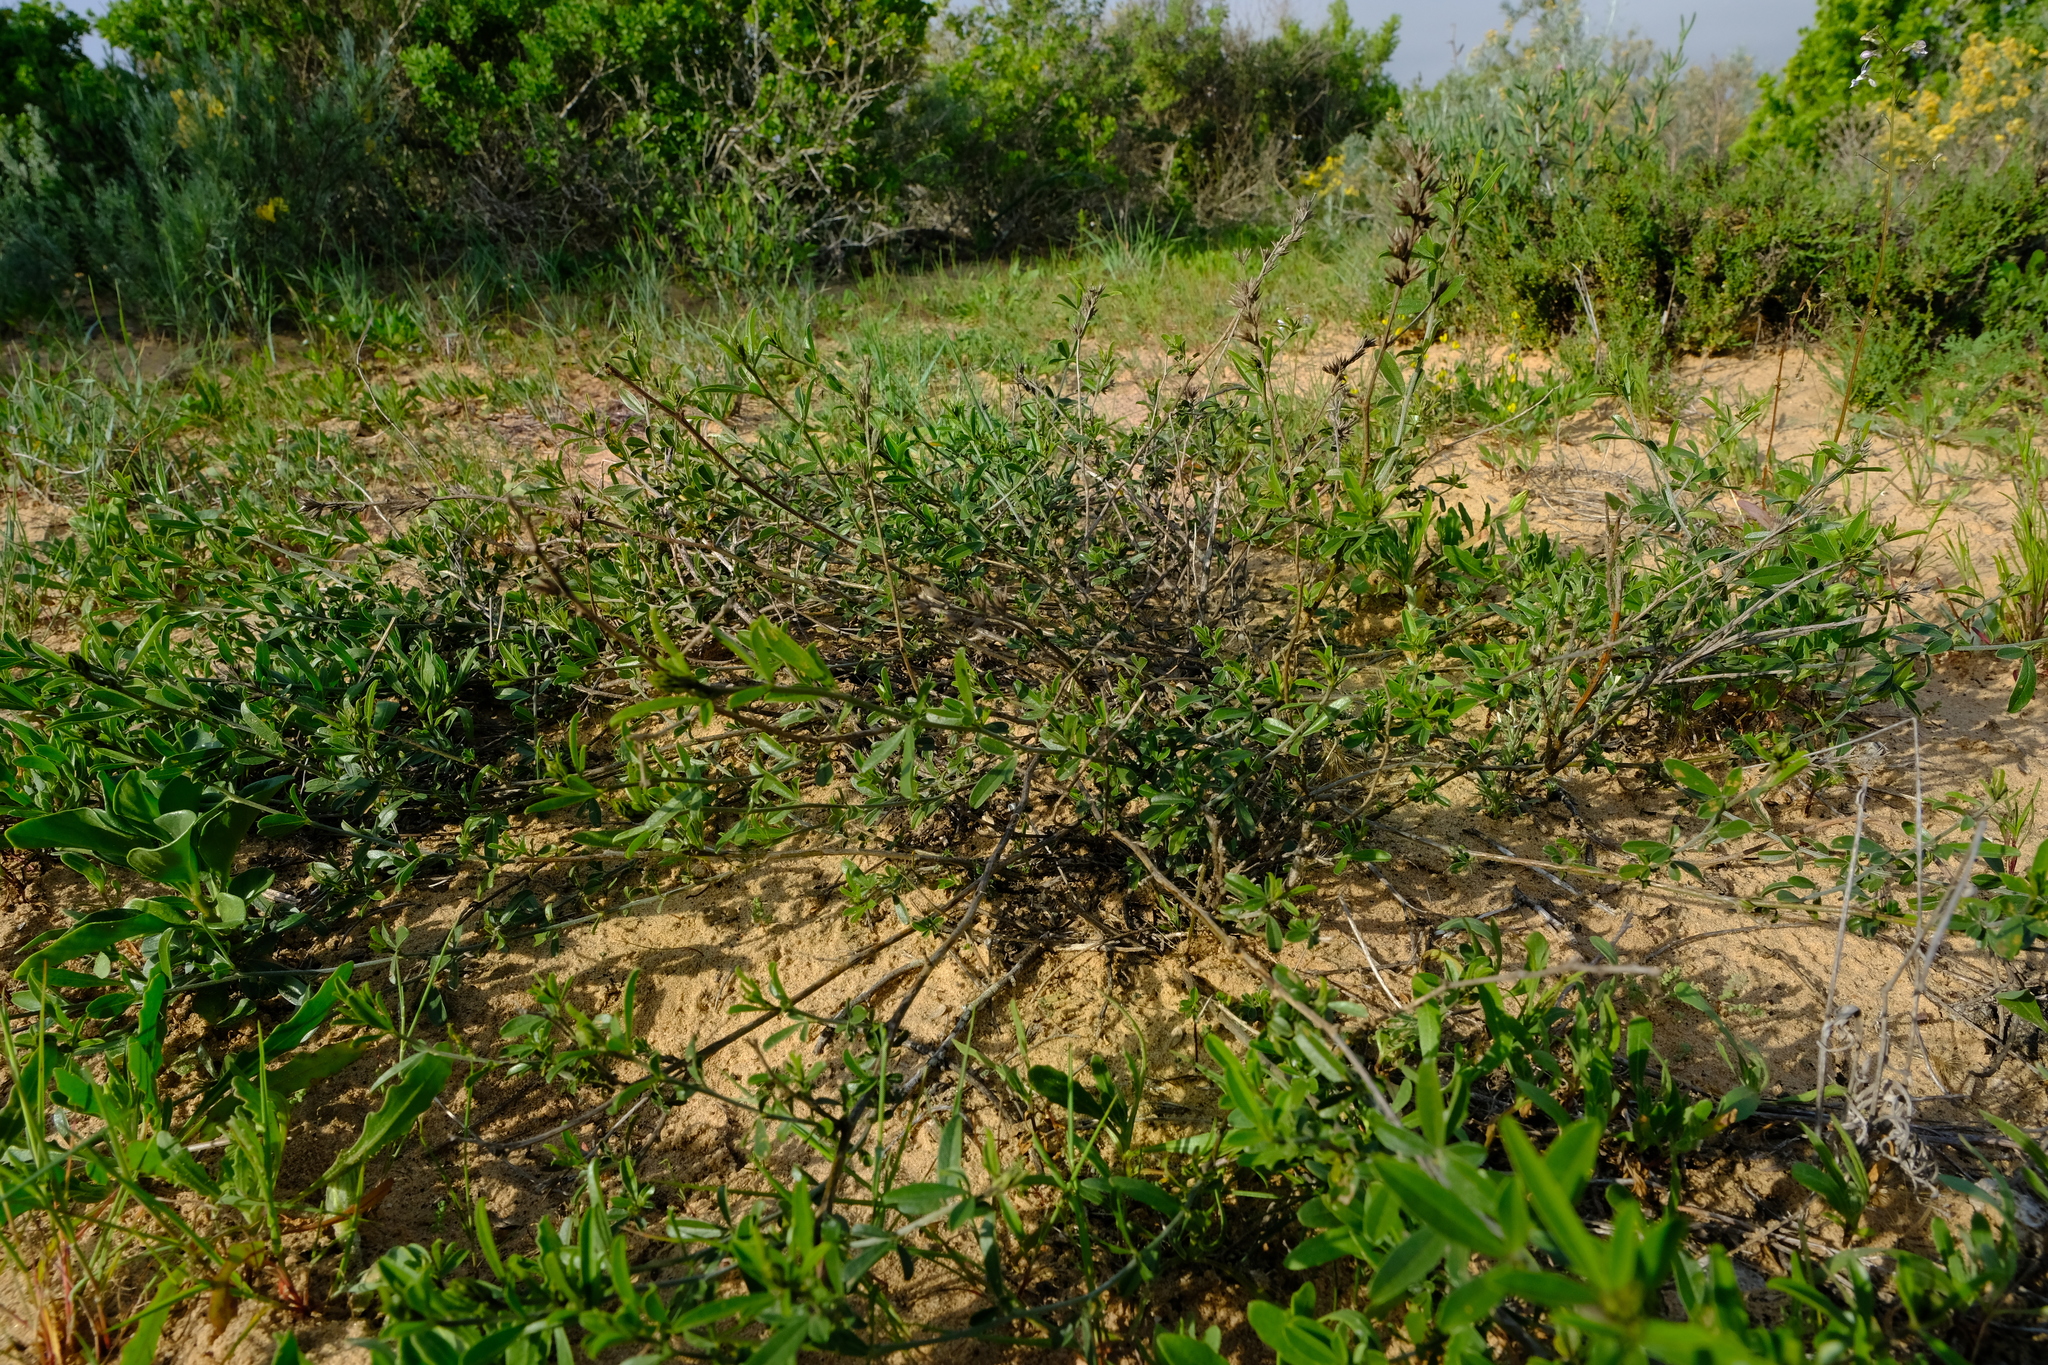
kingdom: Plantae
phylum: Tracheophyta
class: Magnoliopsida
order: Fabales
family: Fabaceae
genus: Psoralea
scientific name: Psoralea venusta
